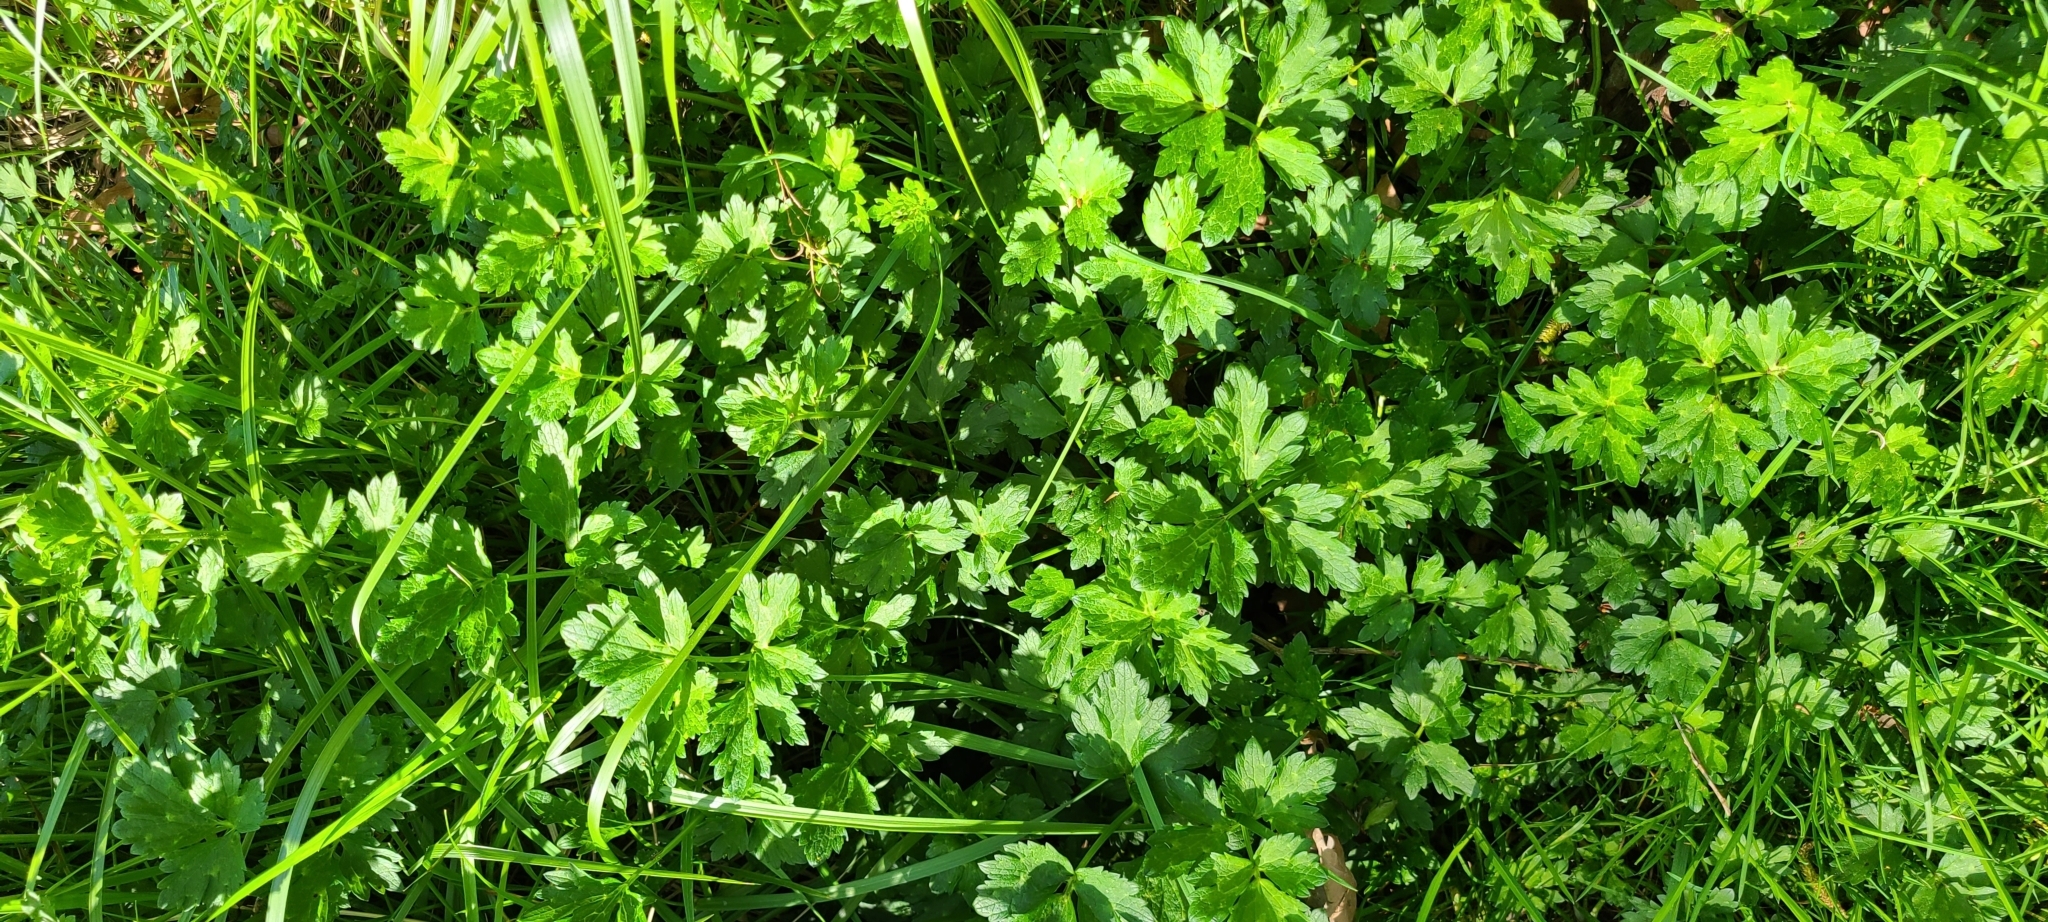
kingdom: Plantae
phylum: Tracheophyta
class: Magnoliopsida
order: Ranunculales
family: Ranunculaceae
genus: Ranunculus
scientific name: Ranunculus repens
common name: Creeping buttercup
